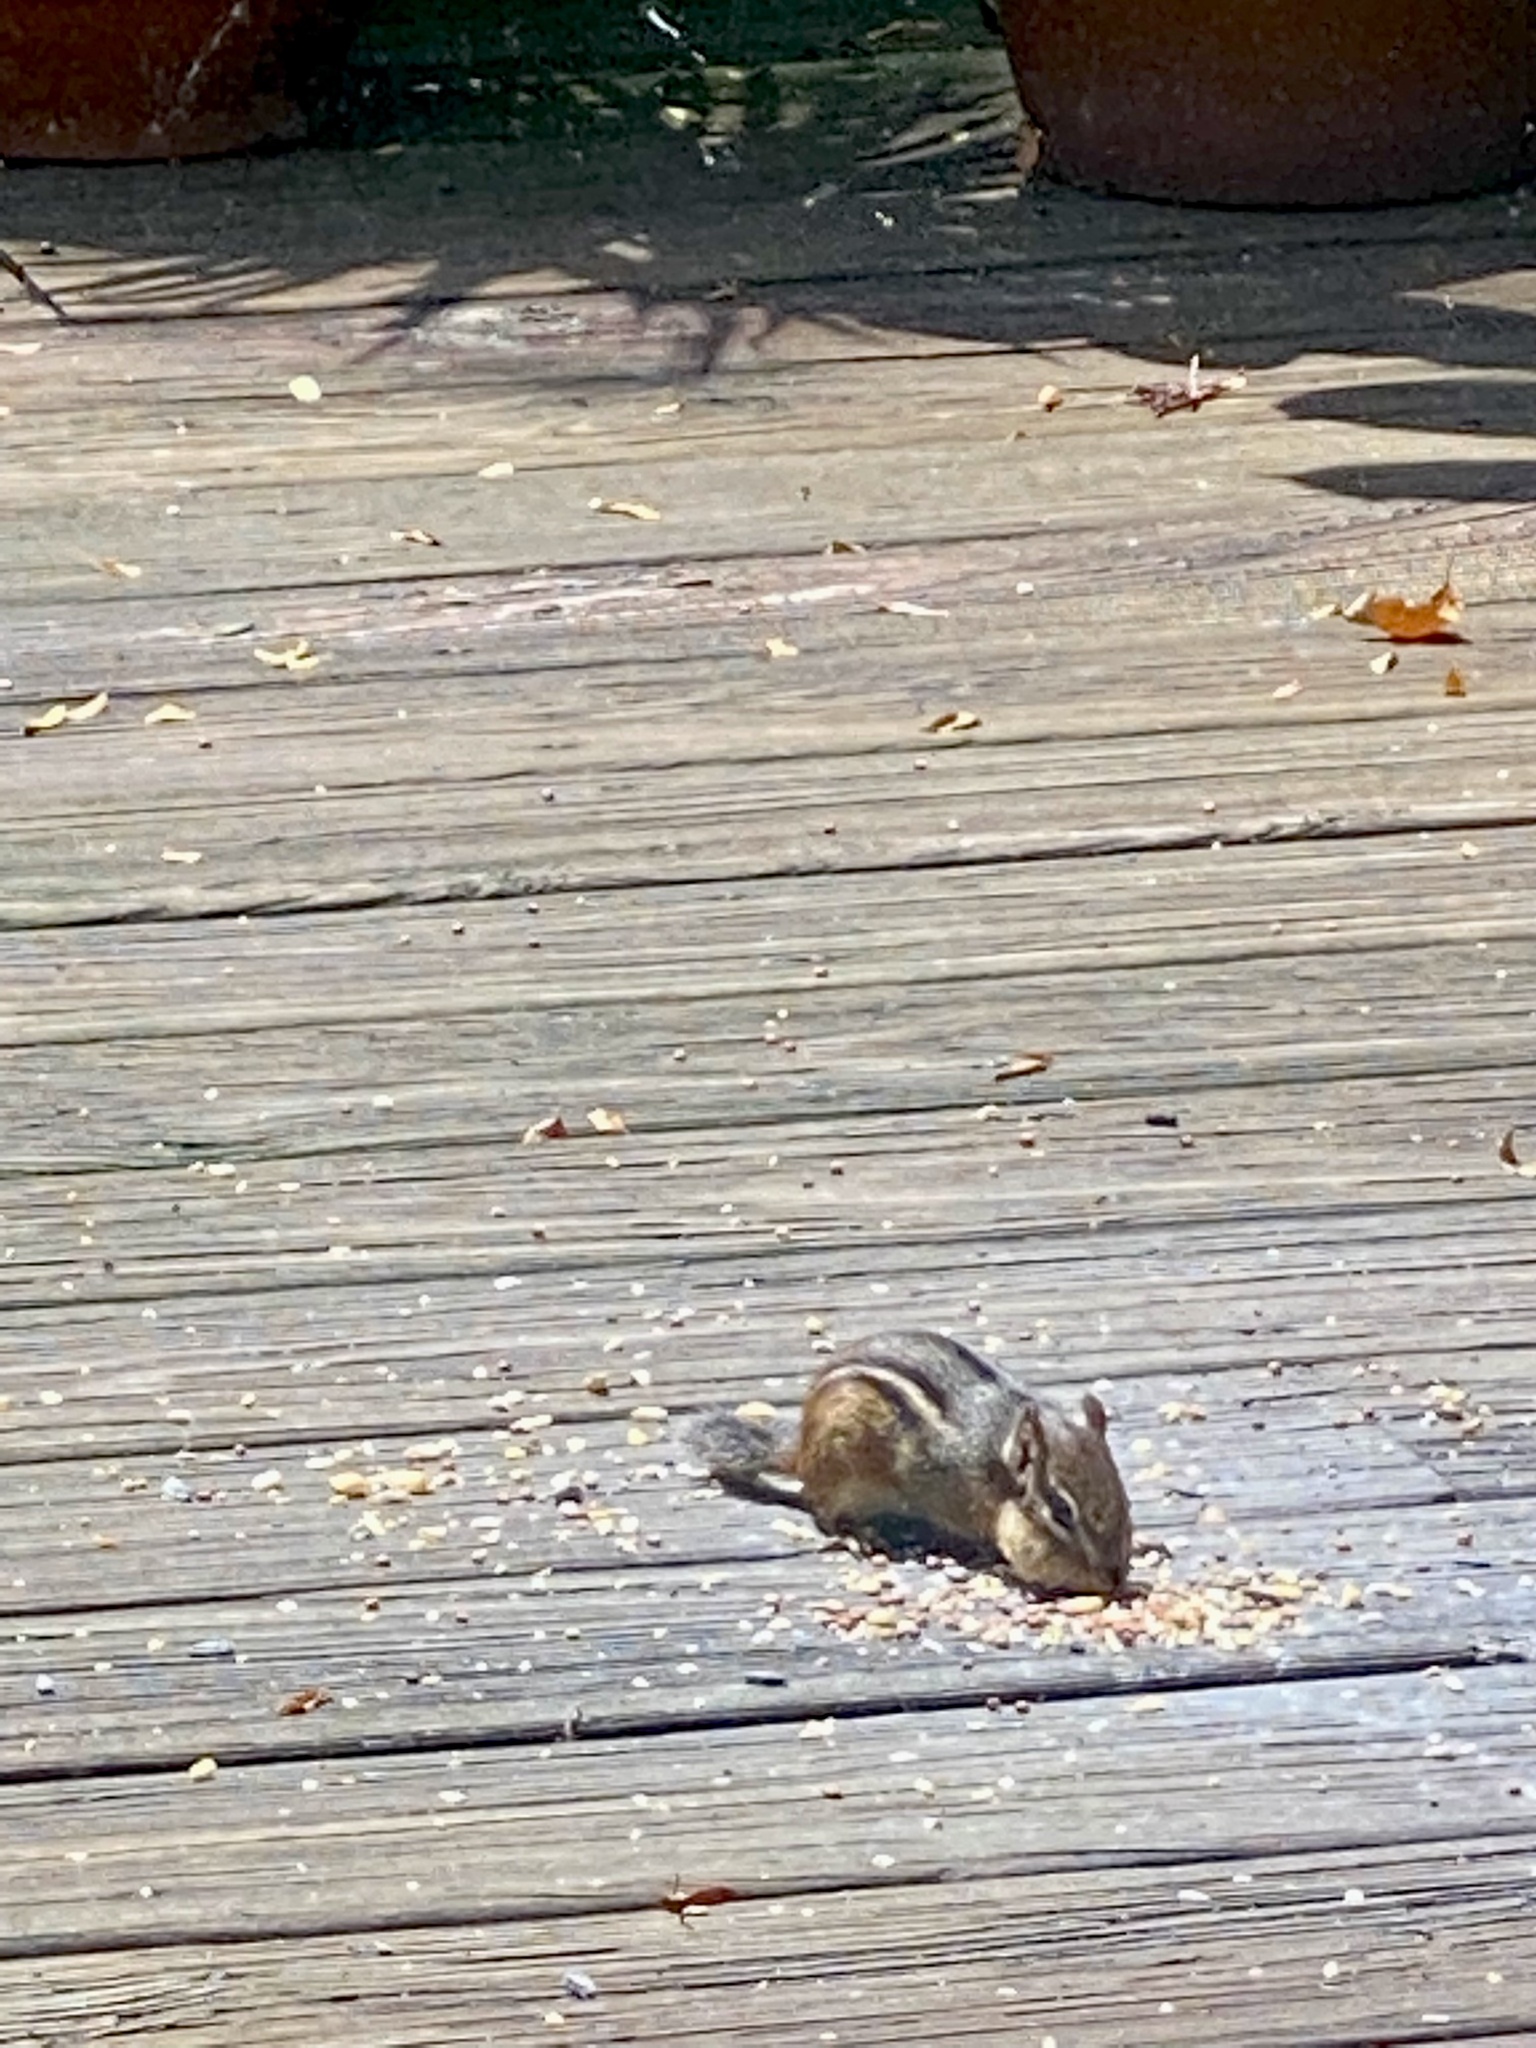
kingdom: Animalia
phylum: Chordata
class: Mammalia
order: Rodentia
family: Sciuridae
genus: Tamias
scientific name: Tamias striatus
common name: Eastern chipmunk
